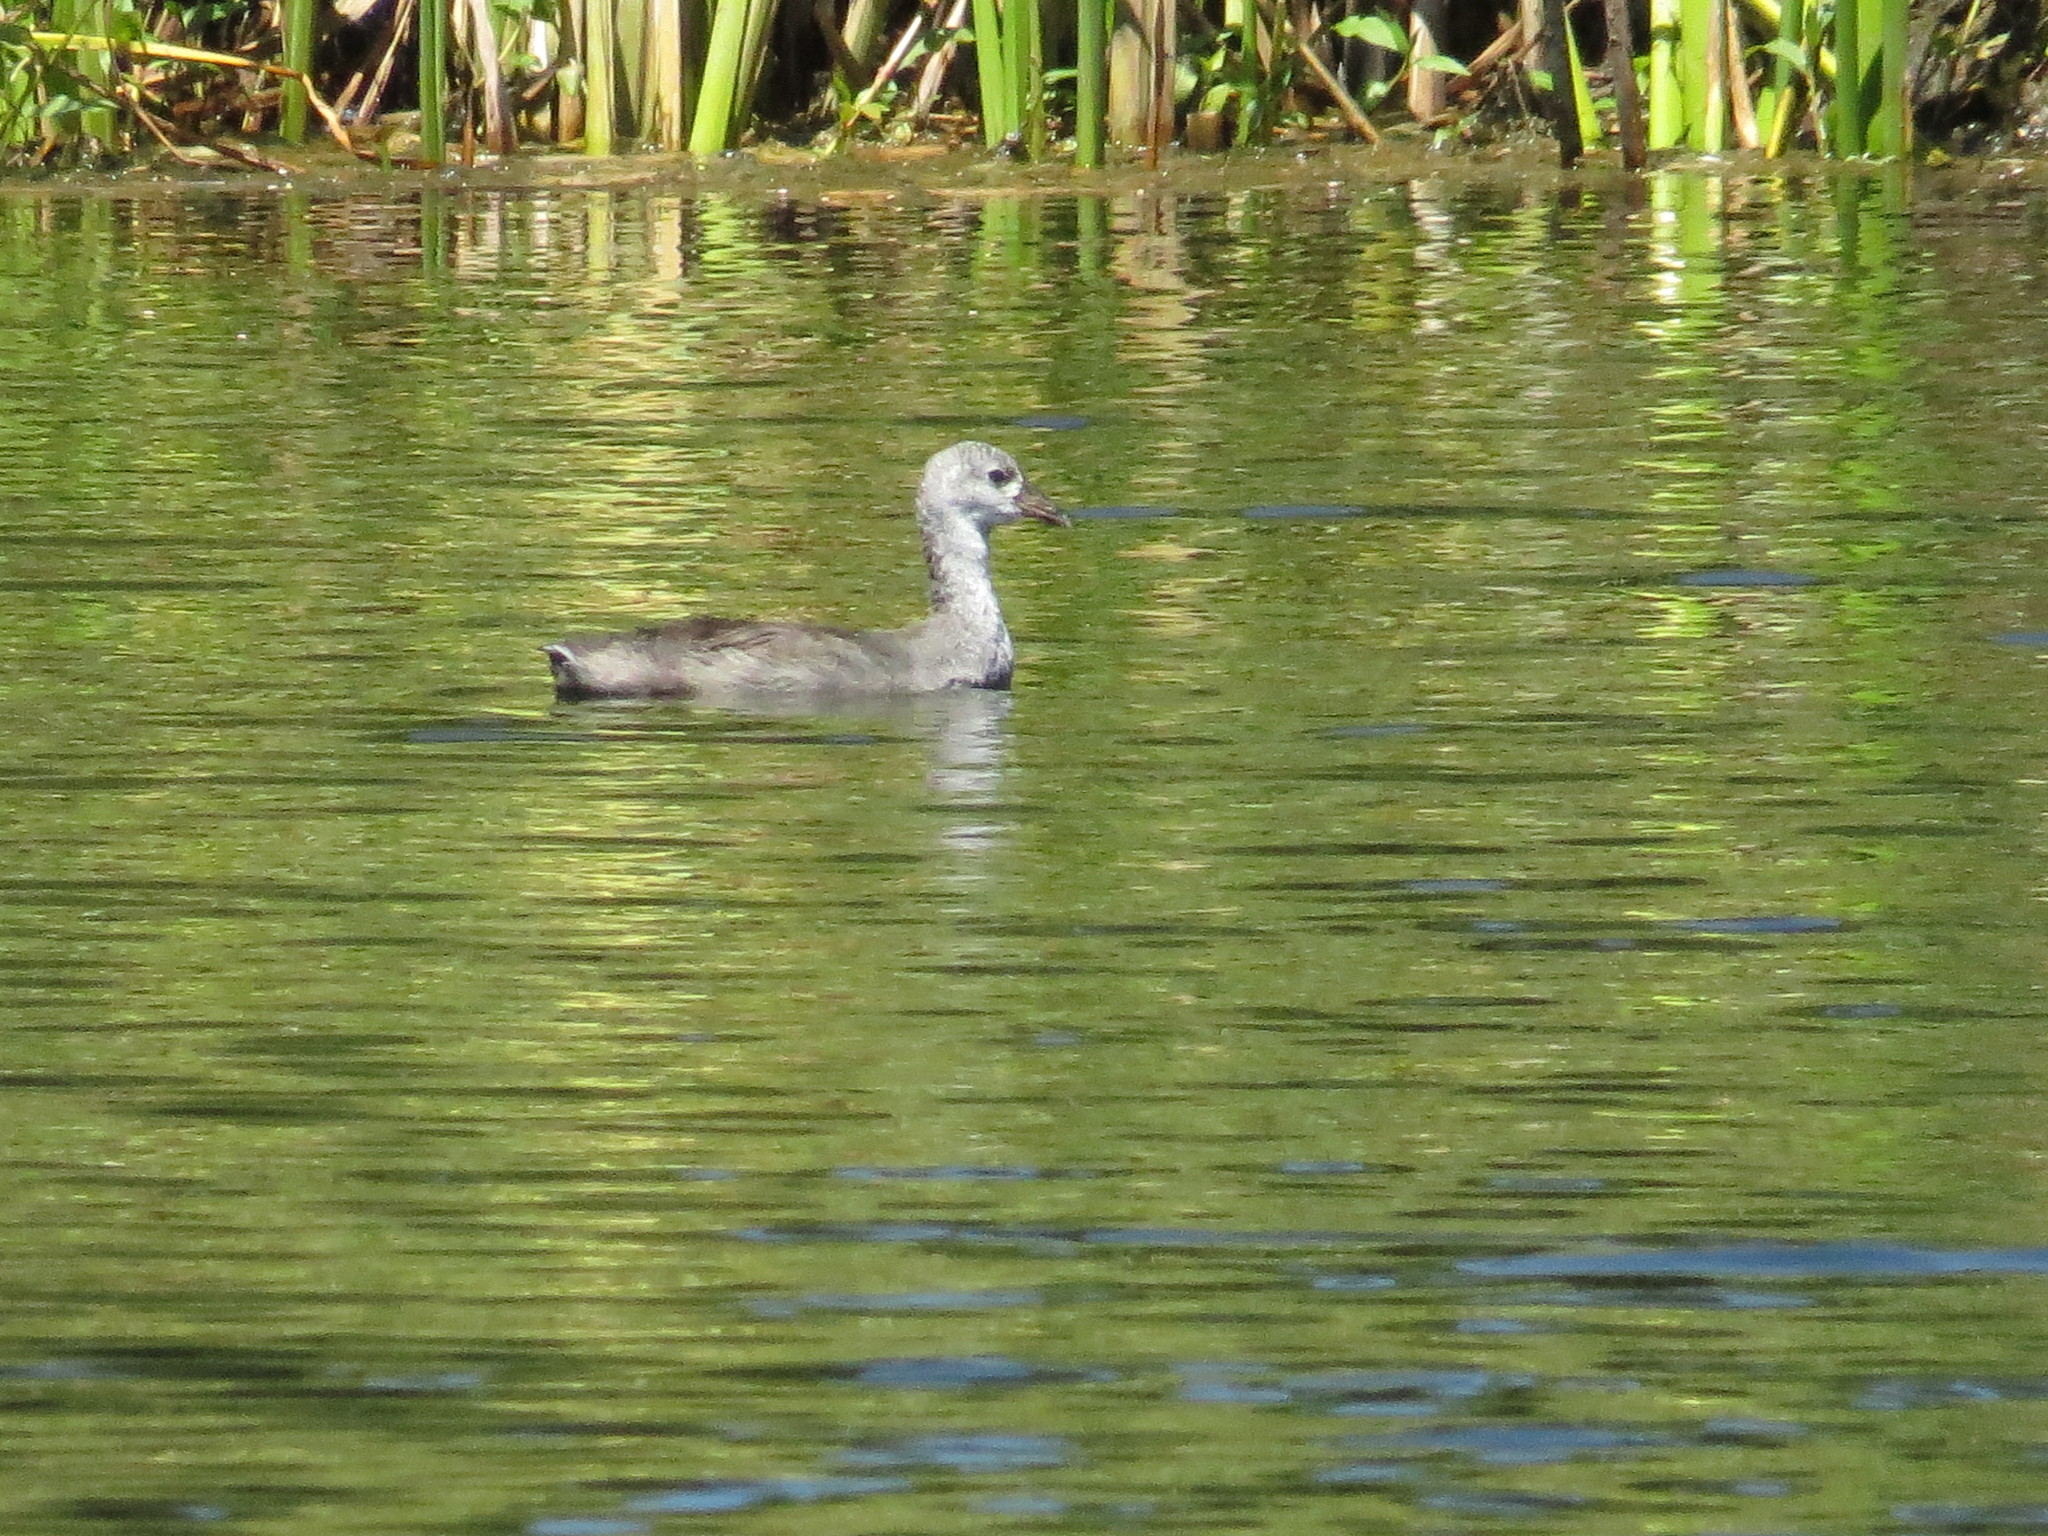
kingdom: Animalia
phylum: Chordata
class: Aves
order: Gruiformes
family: Rallidae
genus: Fulica
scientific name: Fulica americana
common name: American coot
